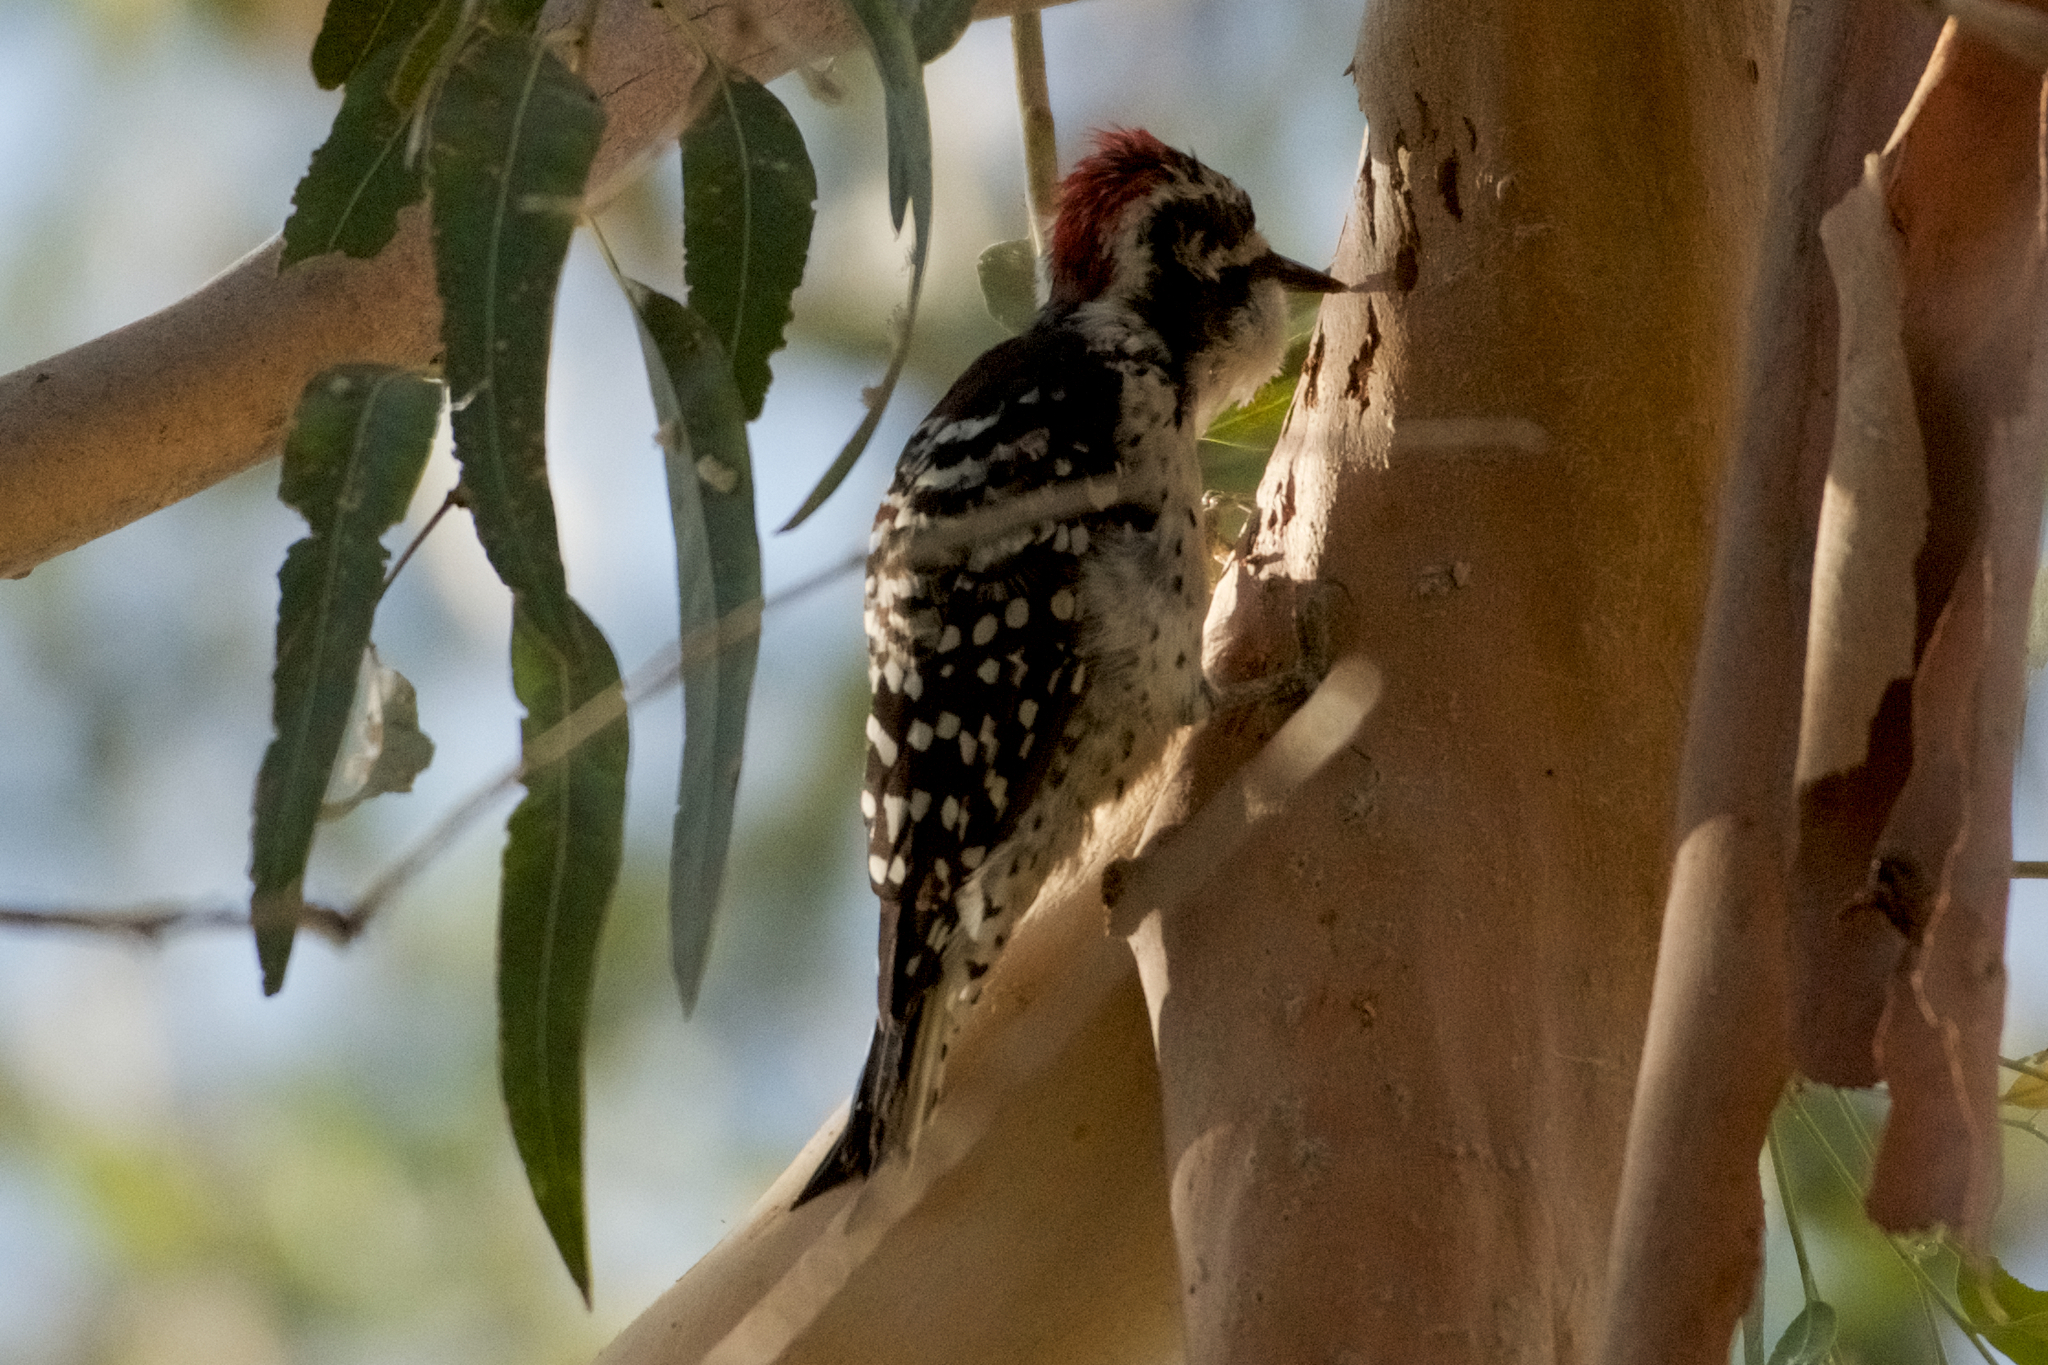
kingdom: Animalia
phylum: Chordata
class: Aves
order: Piciformes
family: Picidae
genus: Dryobates
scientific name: Dryobates nuttallii
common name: Nuttall's woodpecker
